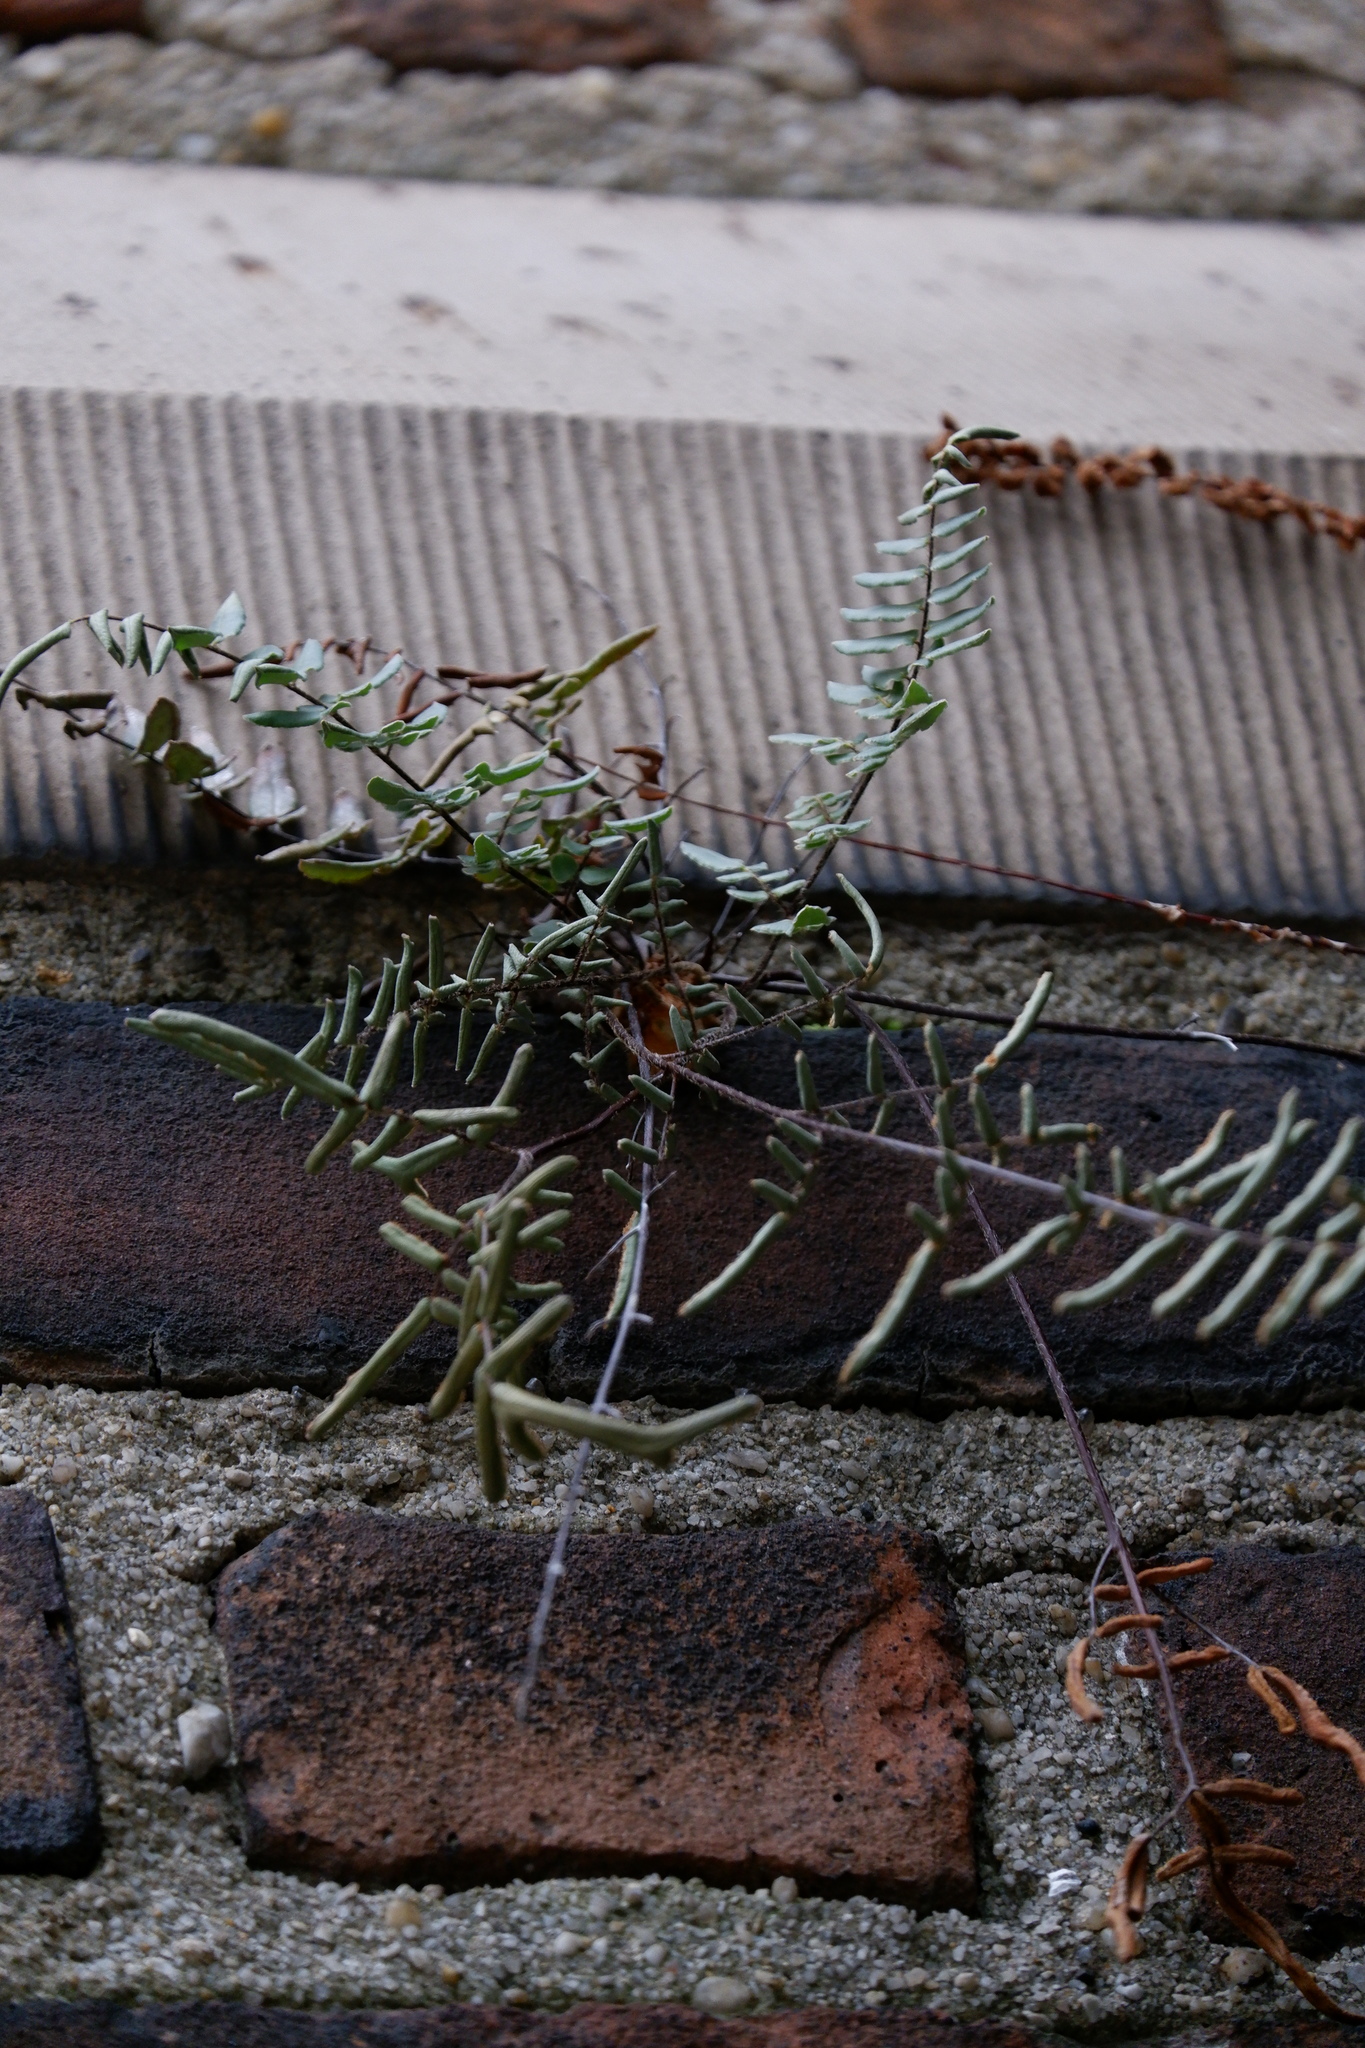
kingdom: Plantae
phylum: Tracheophyta
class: Polypodiopsida
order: Polypodiales
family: Pteridaceae
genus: Pellaea
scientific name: Pellaea atropurpurea
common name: Hairy cliffbrake
